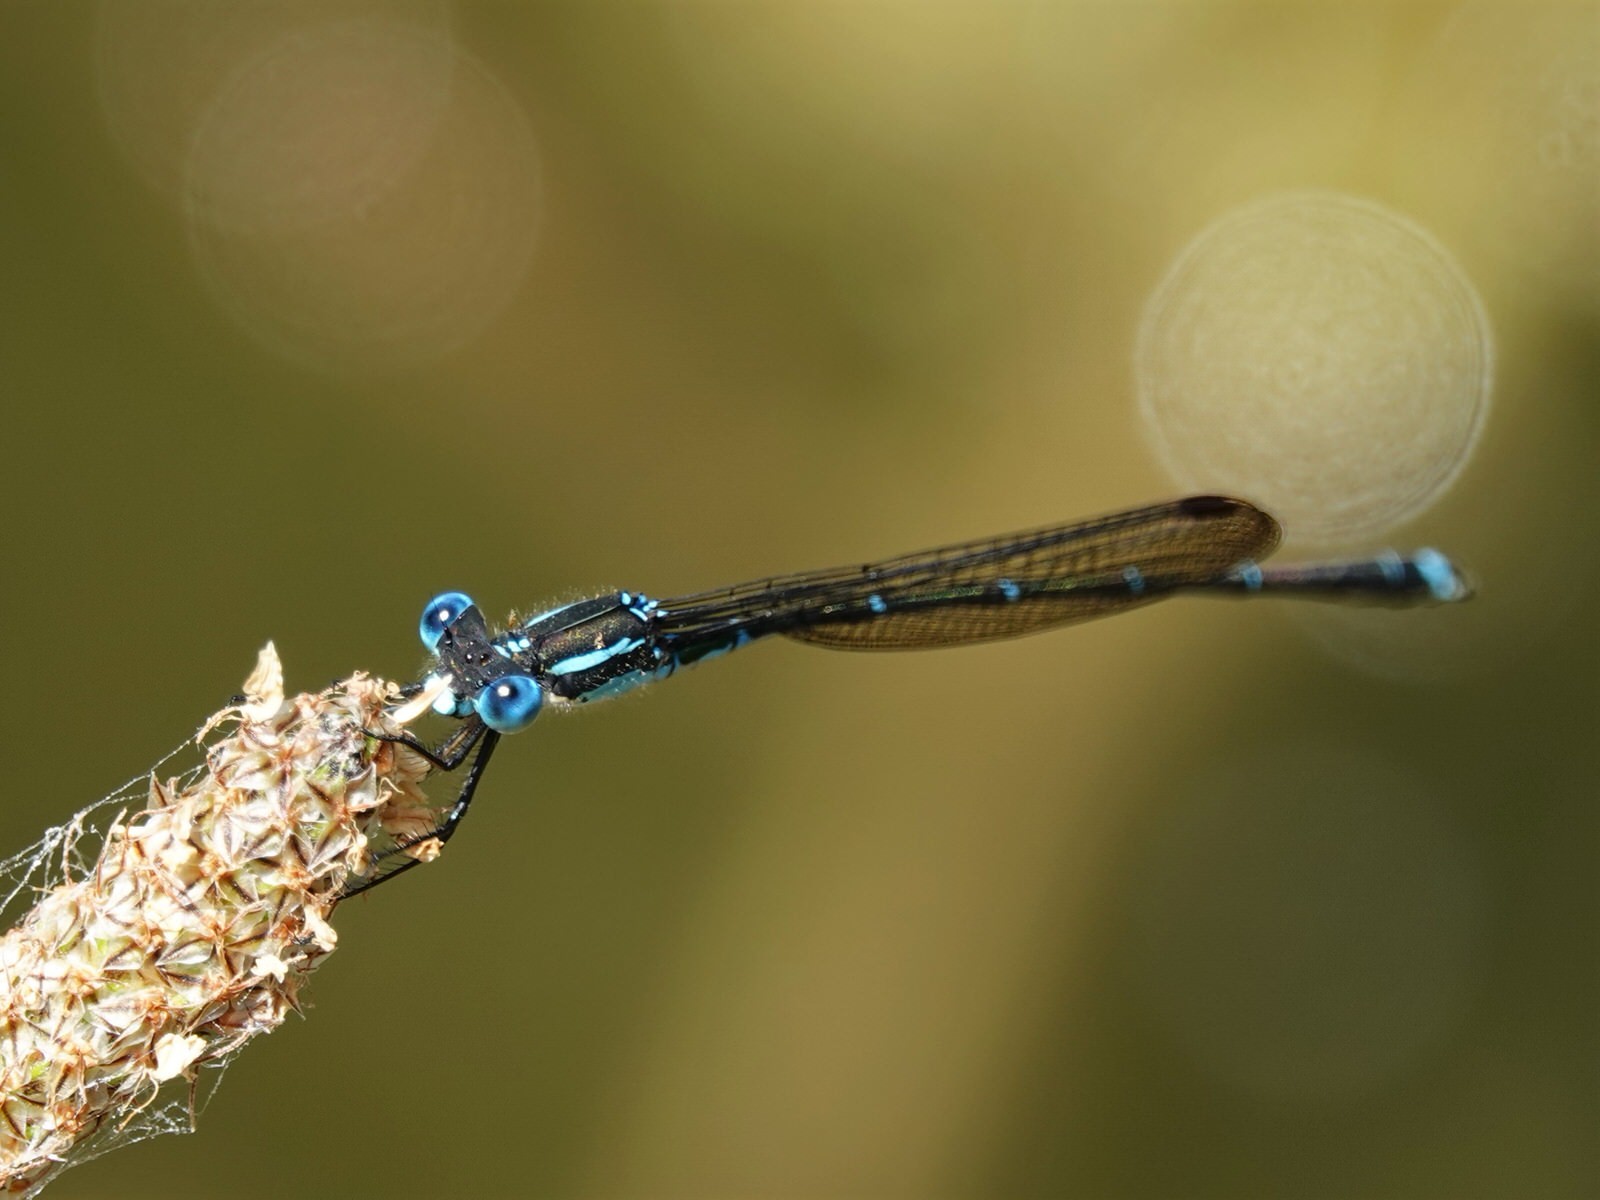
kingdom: Animalia
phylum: Arthropoda
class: Insecta
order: Odonata
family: Lestidae
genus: Austrolestes
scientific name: Austrolestes colensonis
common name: Blue damselfly
